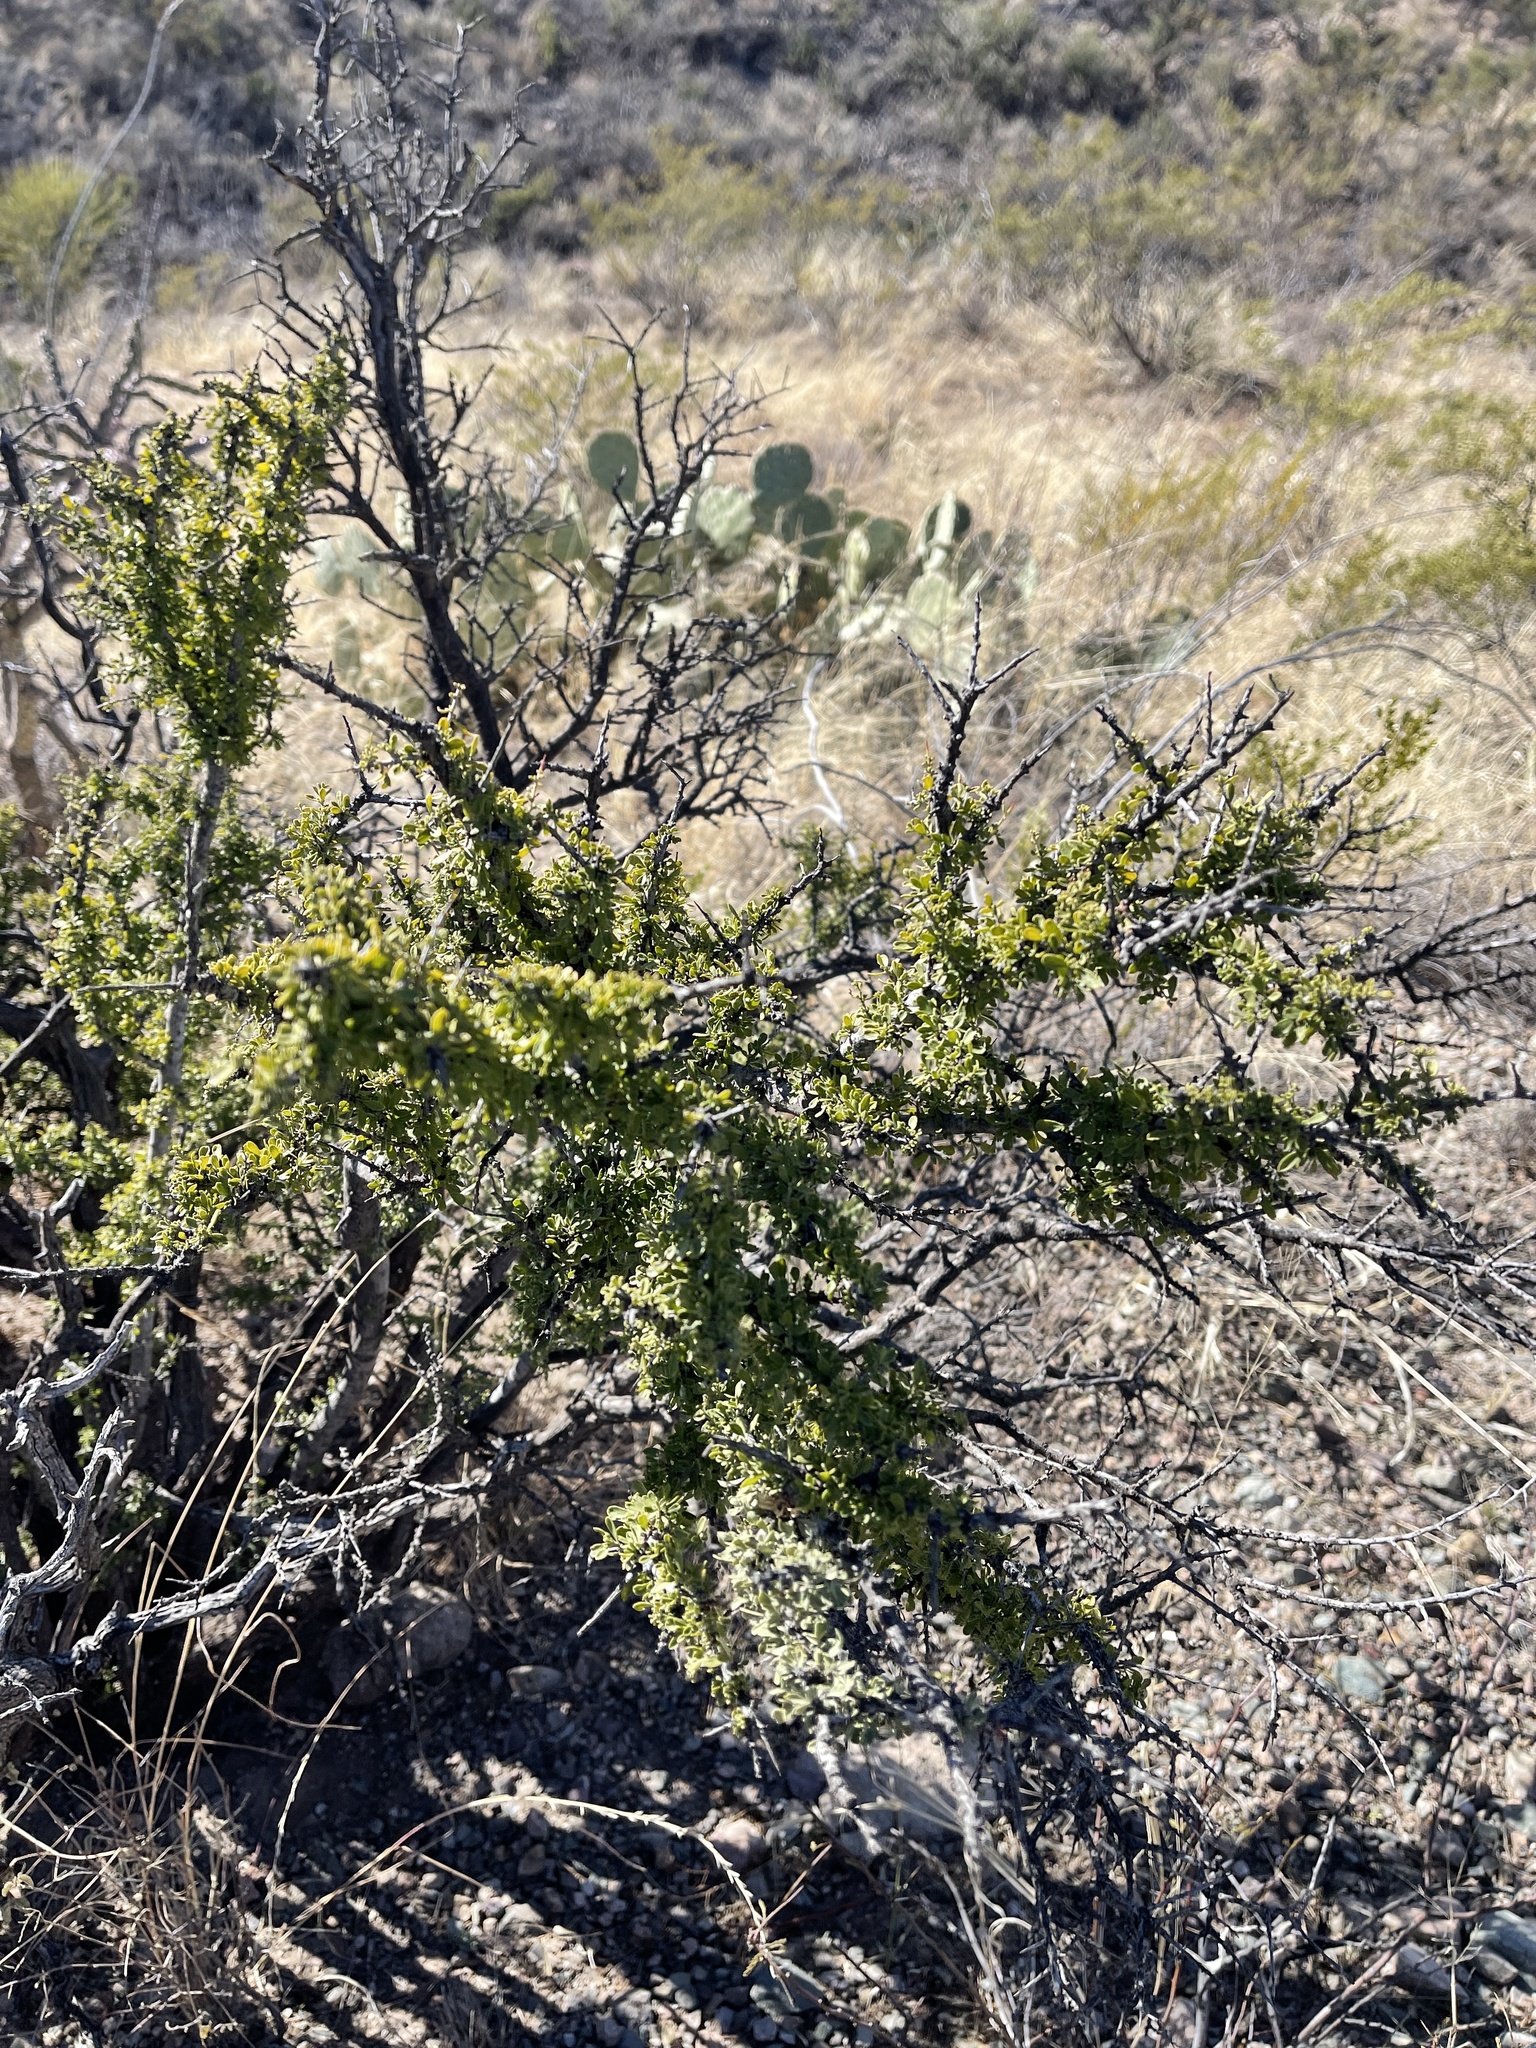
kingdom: Plantae
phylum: Tracheophyta
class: Magnoliopsida
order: Rosales
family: Rhamnaceae
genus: Condalia
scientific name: Condalia warnockii
